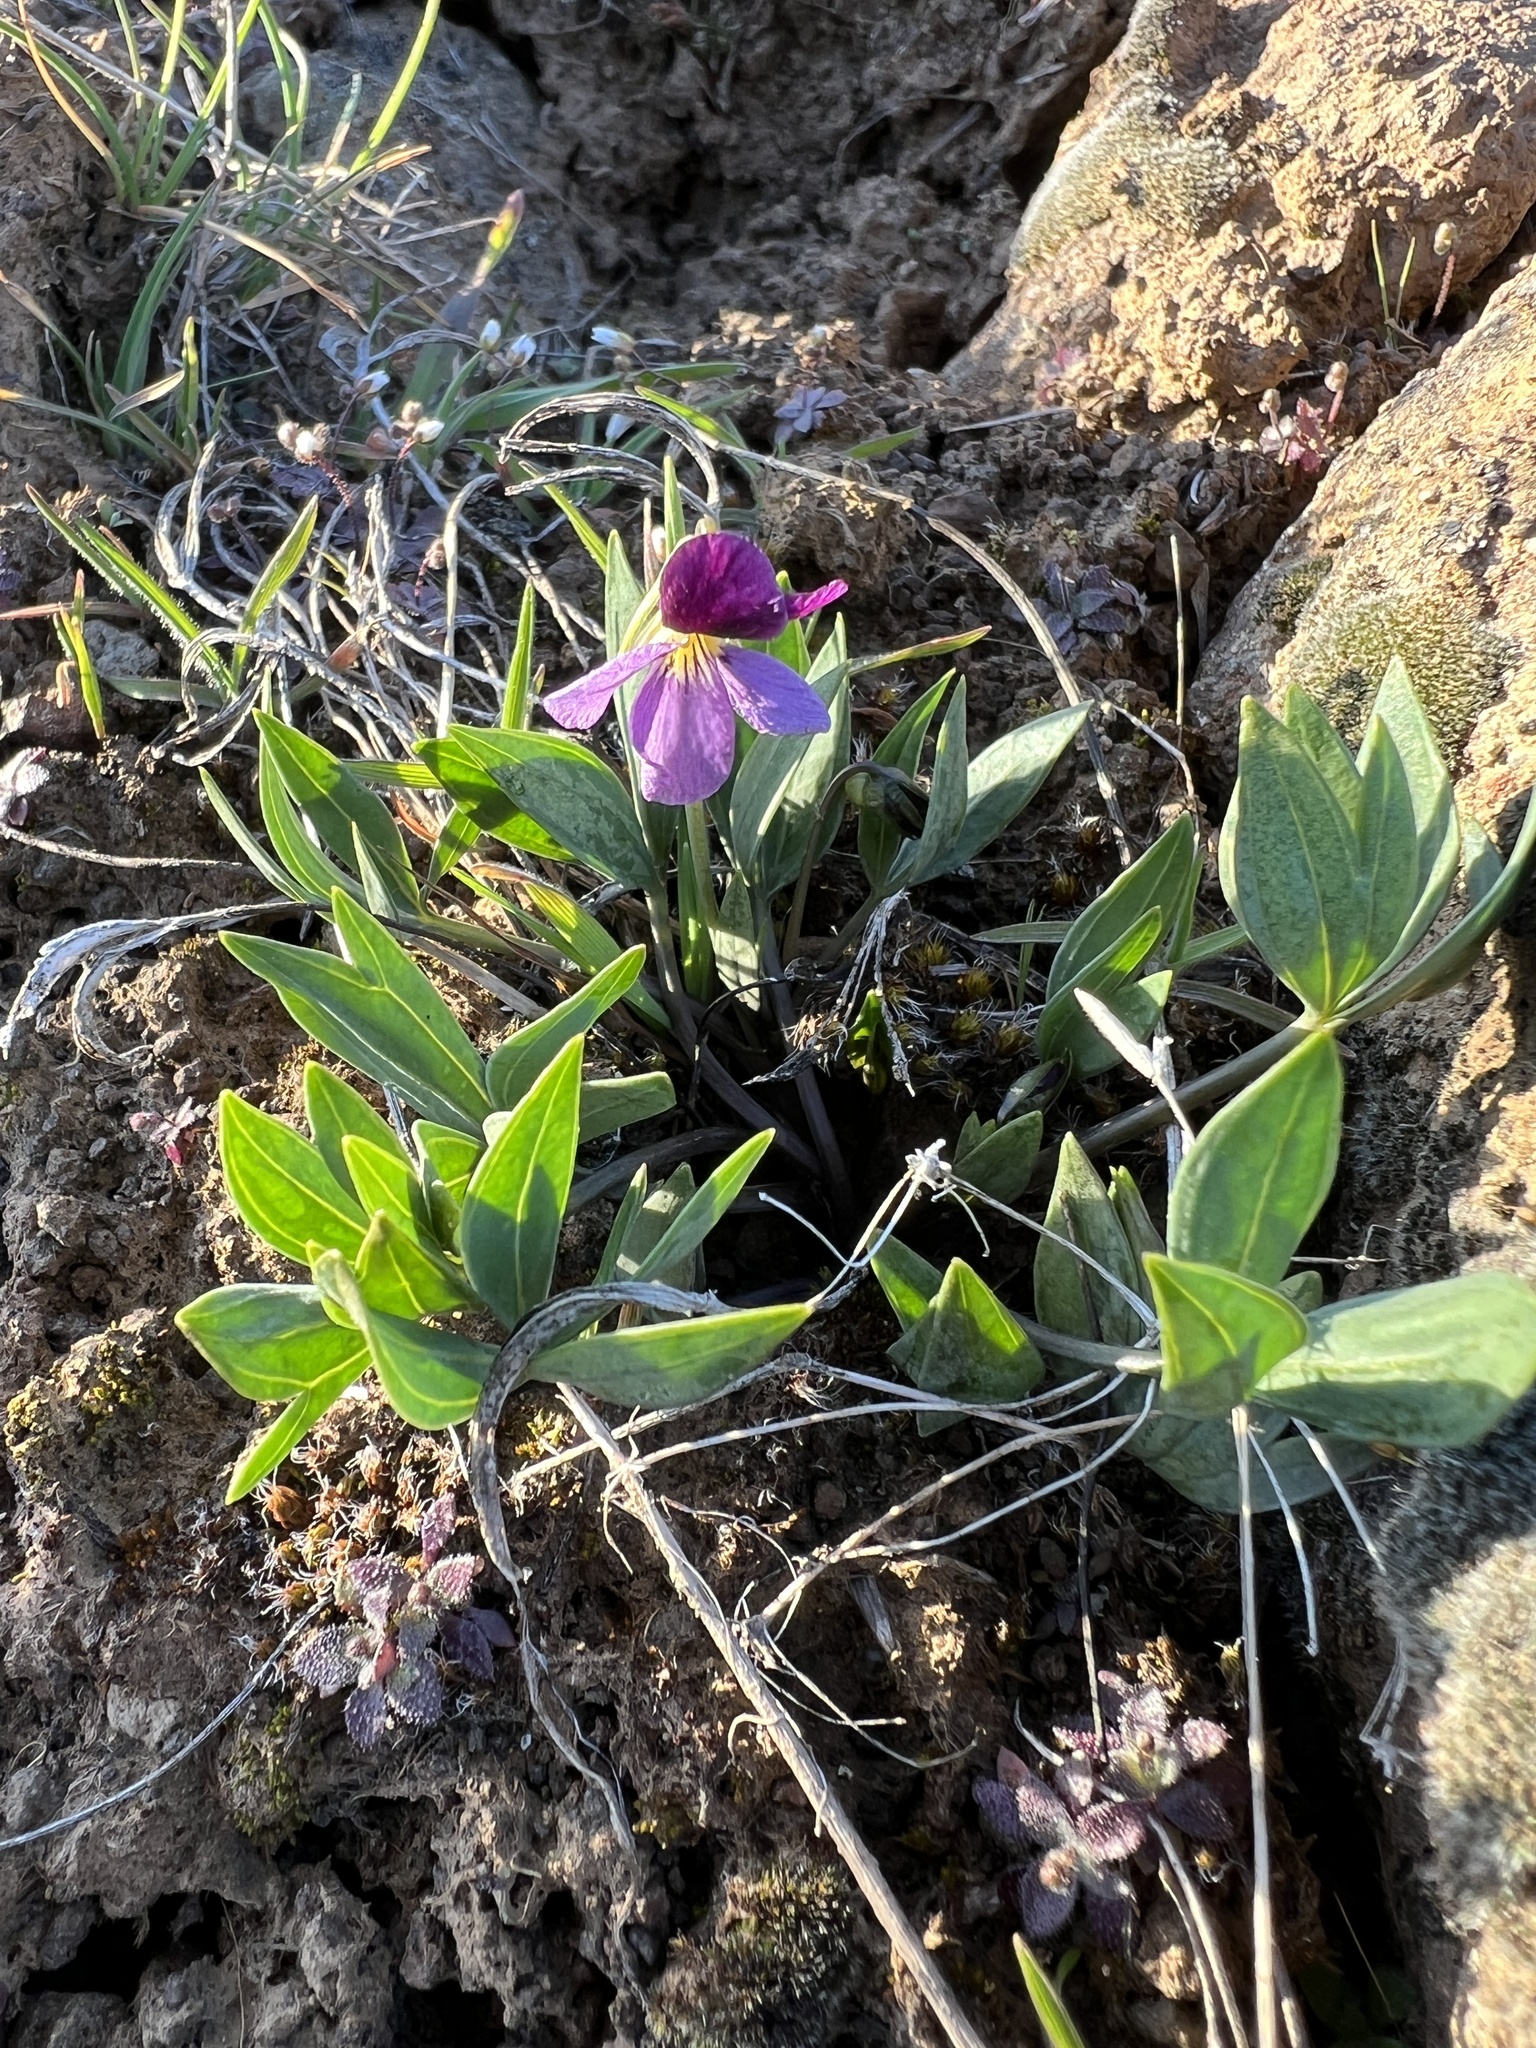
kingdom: Plantae
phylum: Tracheophyta
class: Magnoliopsida
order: Malpighiales
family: Violaceae
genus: Viola
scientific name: Viola trinervata
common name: Sagebrush violet
